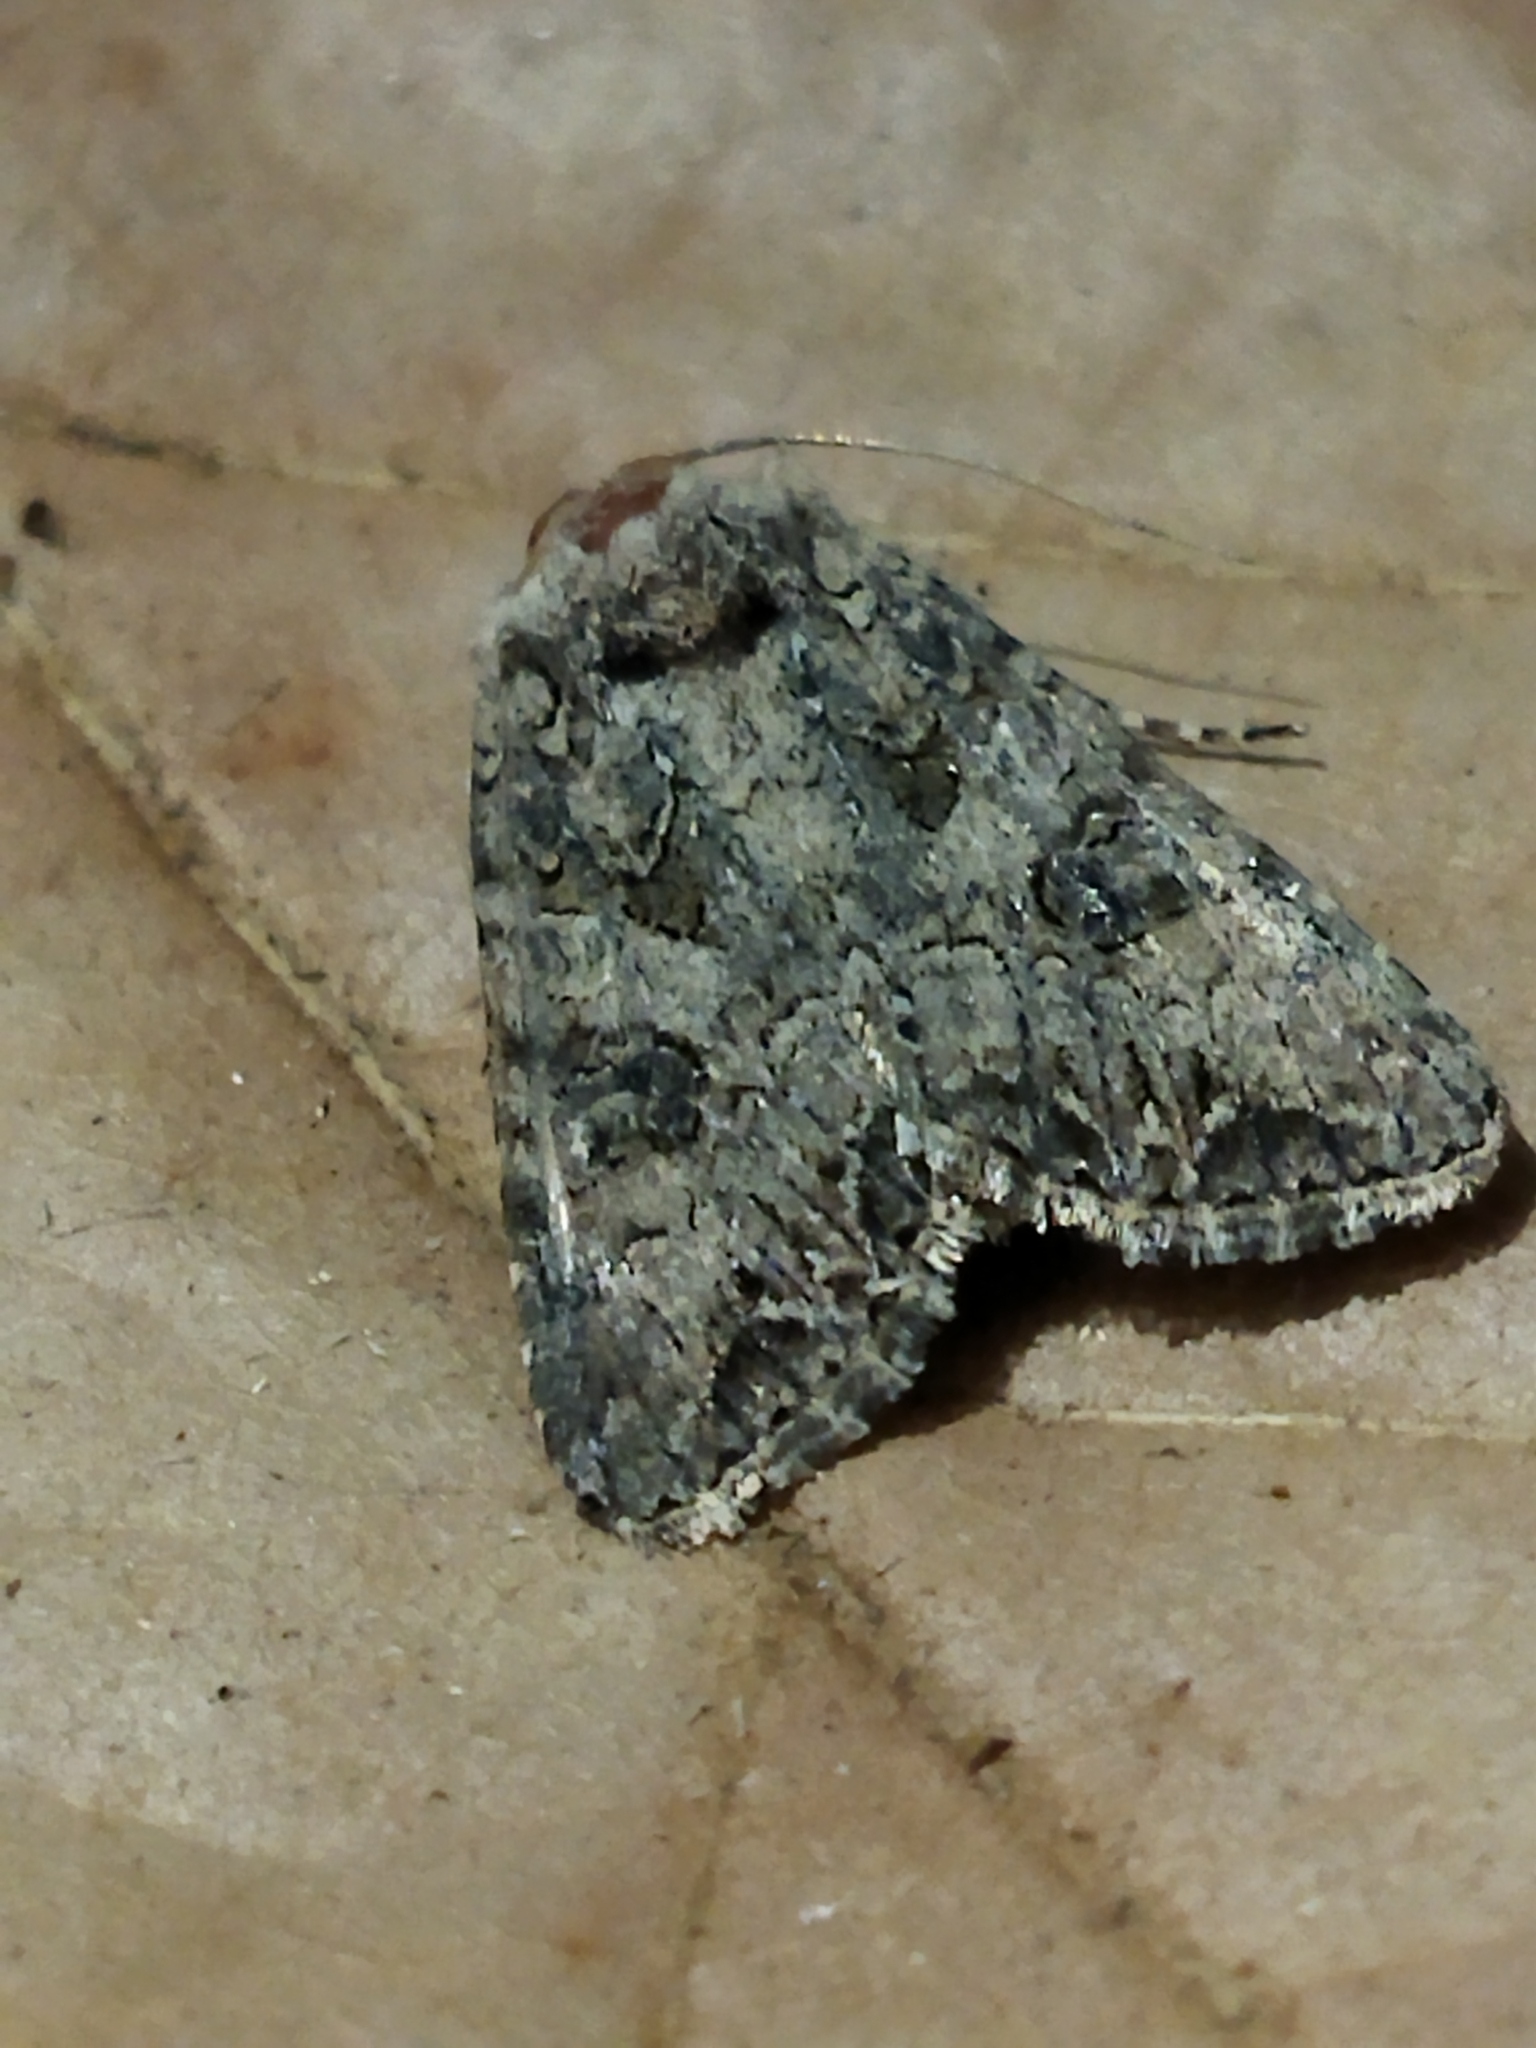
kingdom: Animalia
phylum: Arthropoda
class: Insecta
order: Lepidoptera
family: Noctuidae
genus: Anarta
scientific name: Anarta trifolii
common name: Clover cutworm moth
